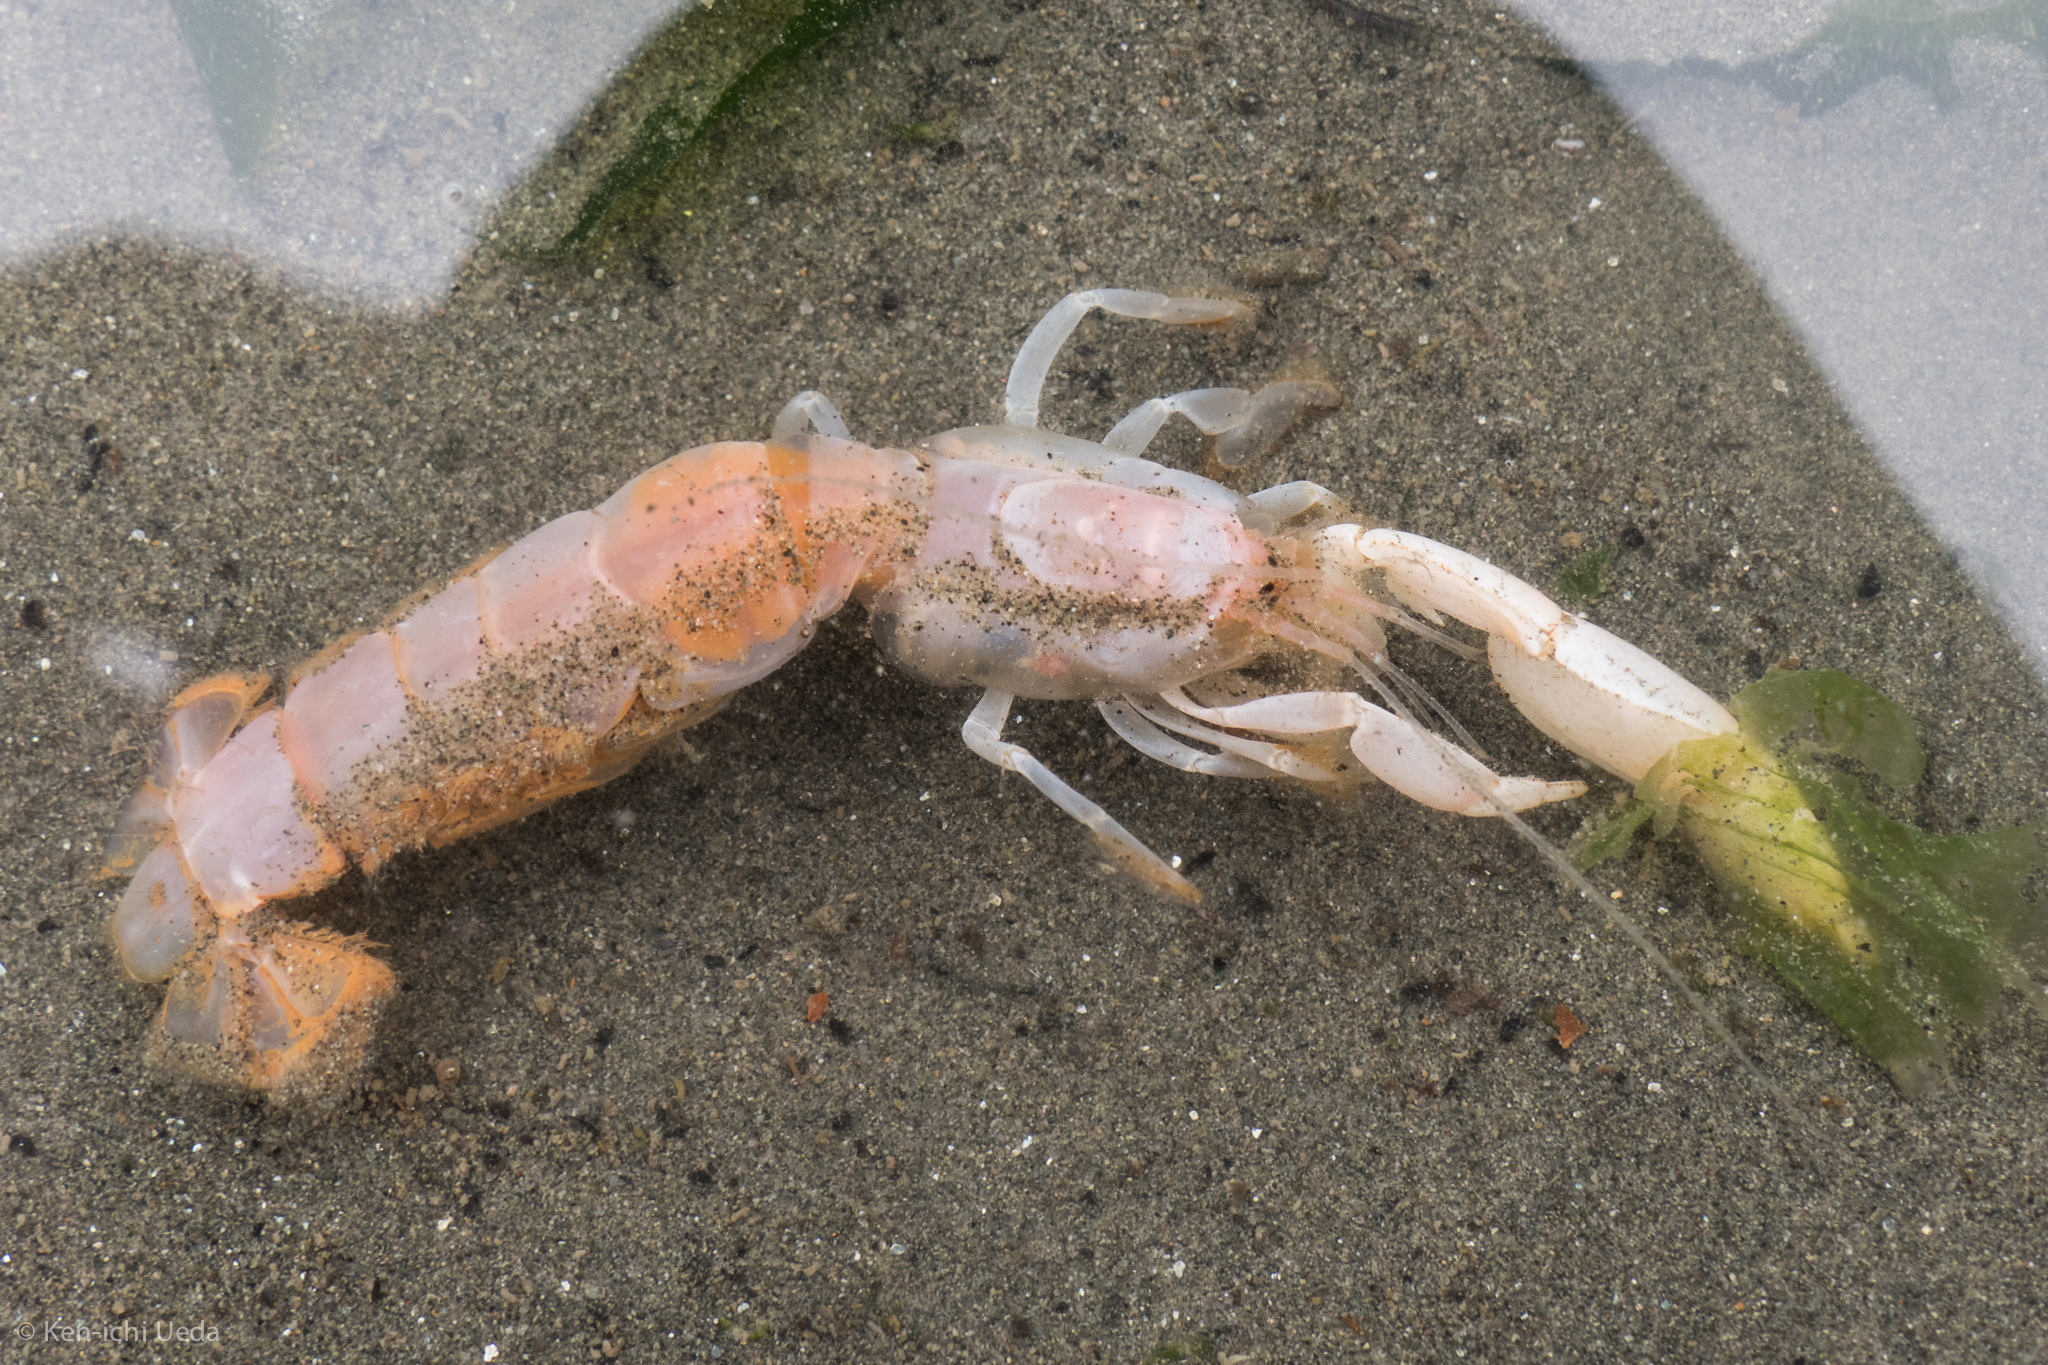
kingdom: Animalia
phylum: Arthropoda
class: Malacostraca
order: Decapoda
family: Callianassidae
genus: Neotrypaea
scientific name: Neotrypaea californiensis
